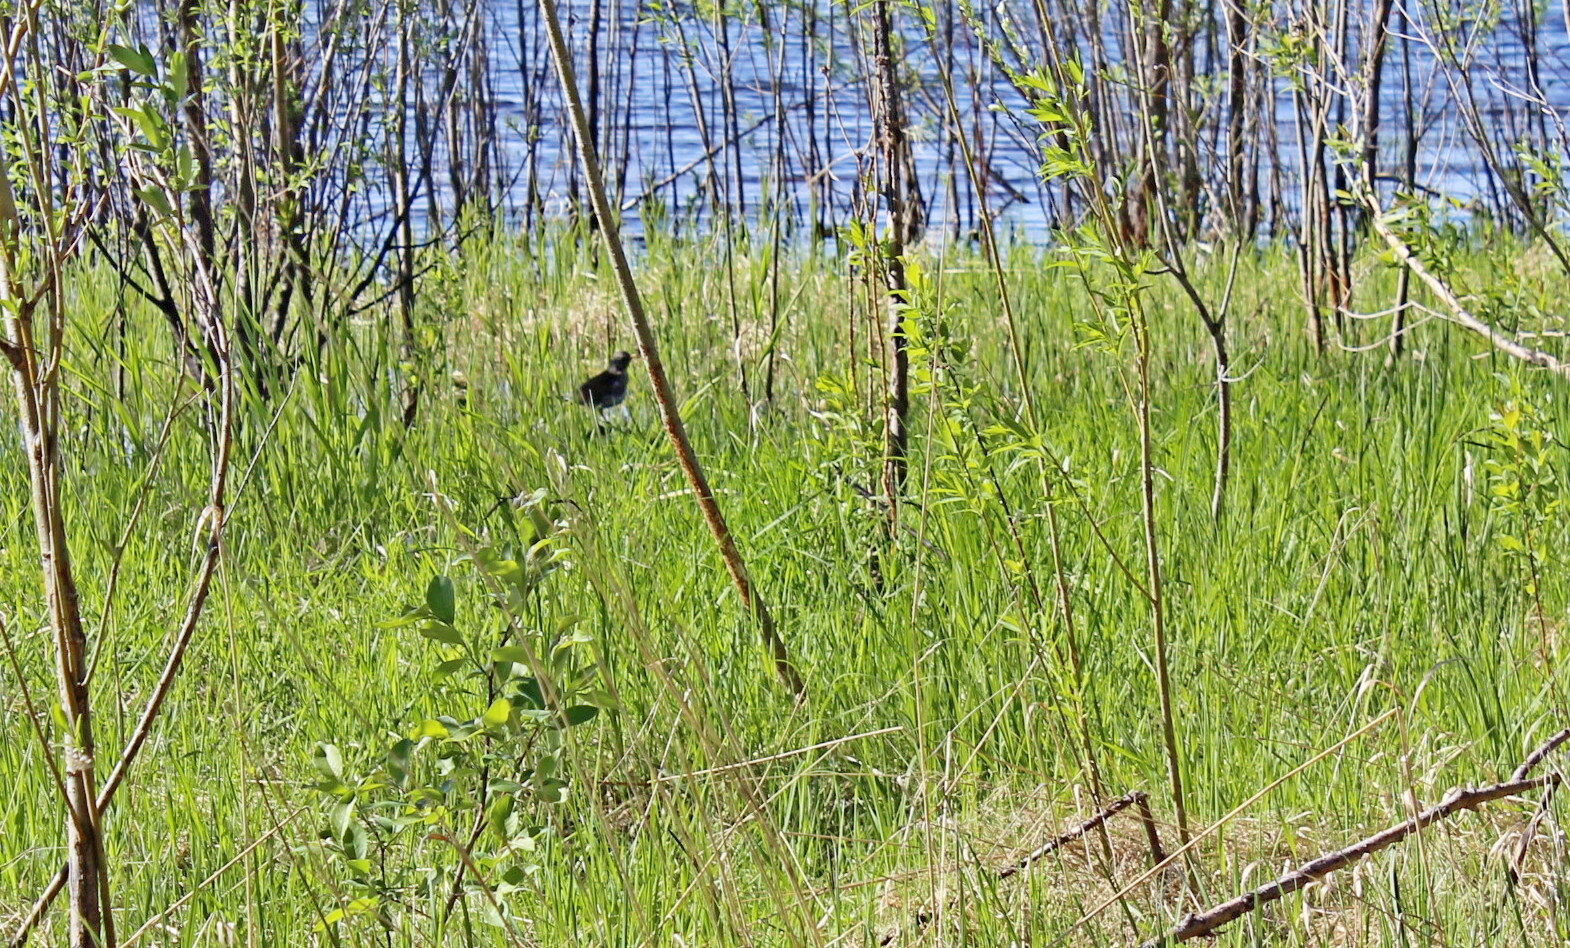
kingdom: Animalia
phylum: Chordata
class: Aves
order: Passeriformes
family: Turdidae
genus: Turdus
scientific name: Turdus pilaris
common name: Fieldfare
